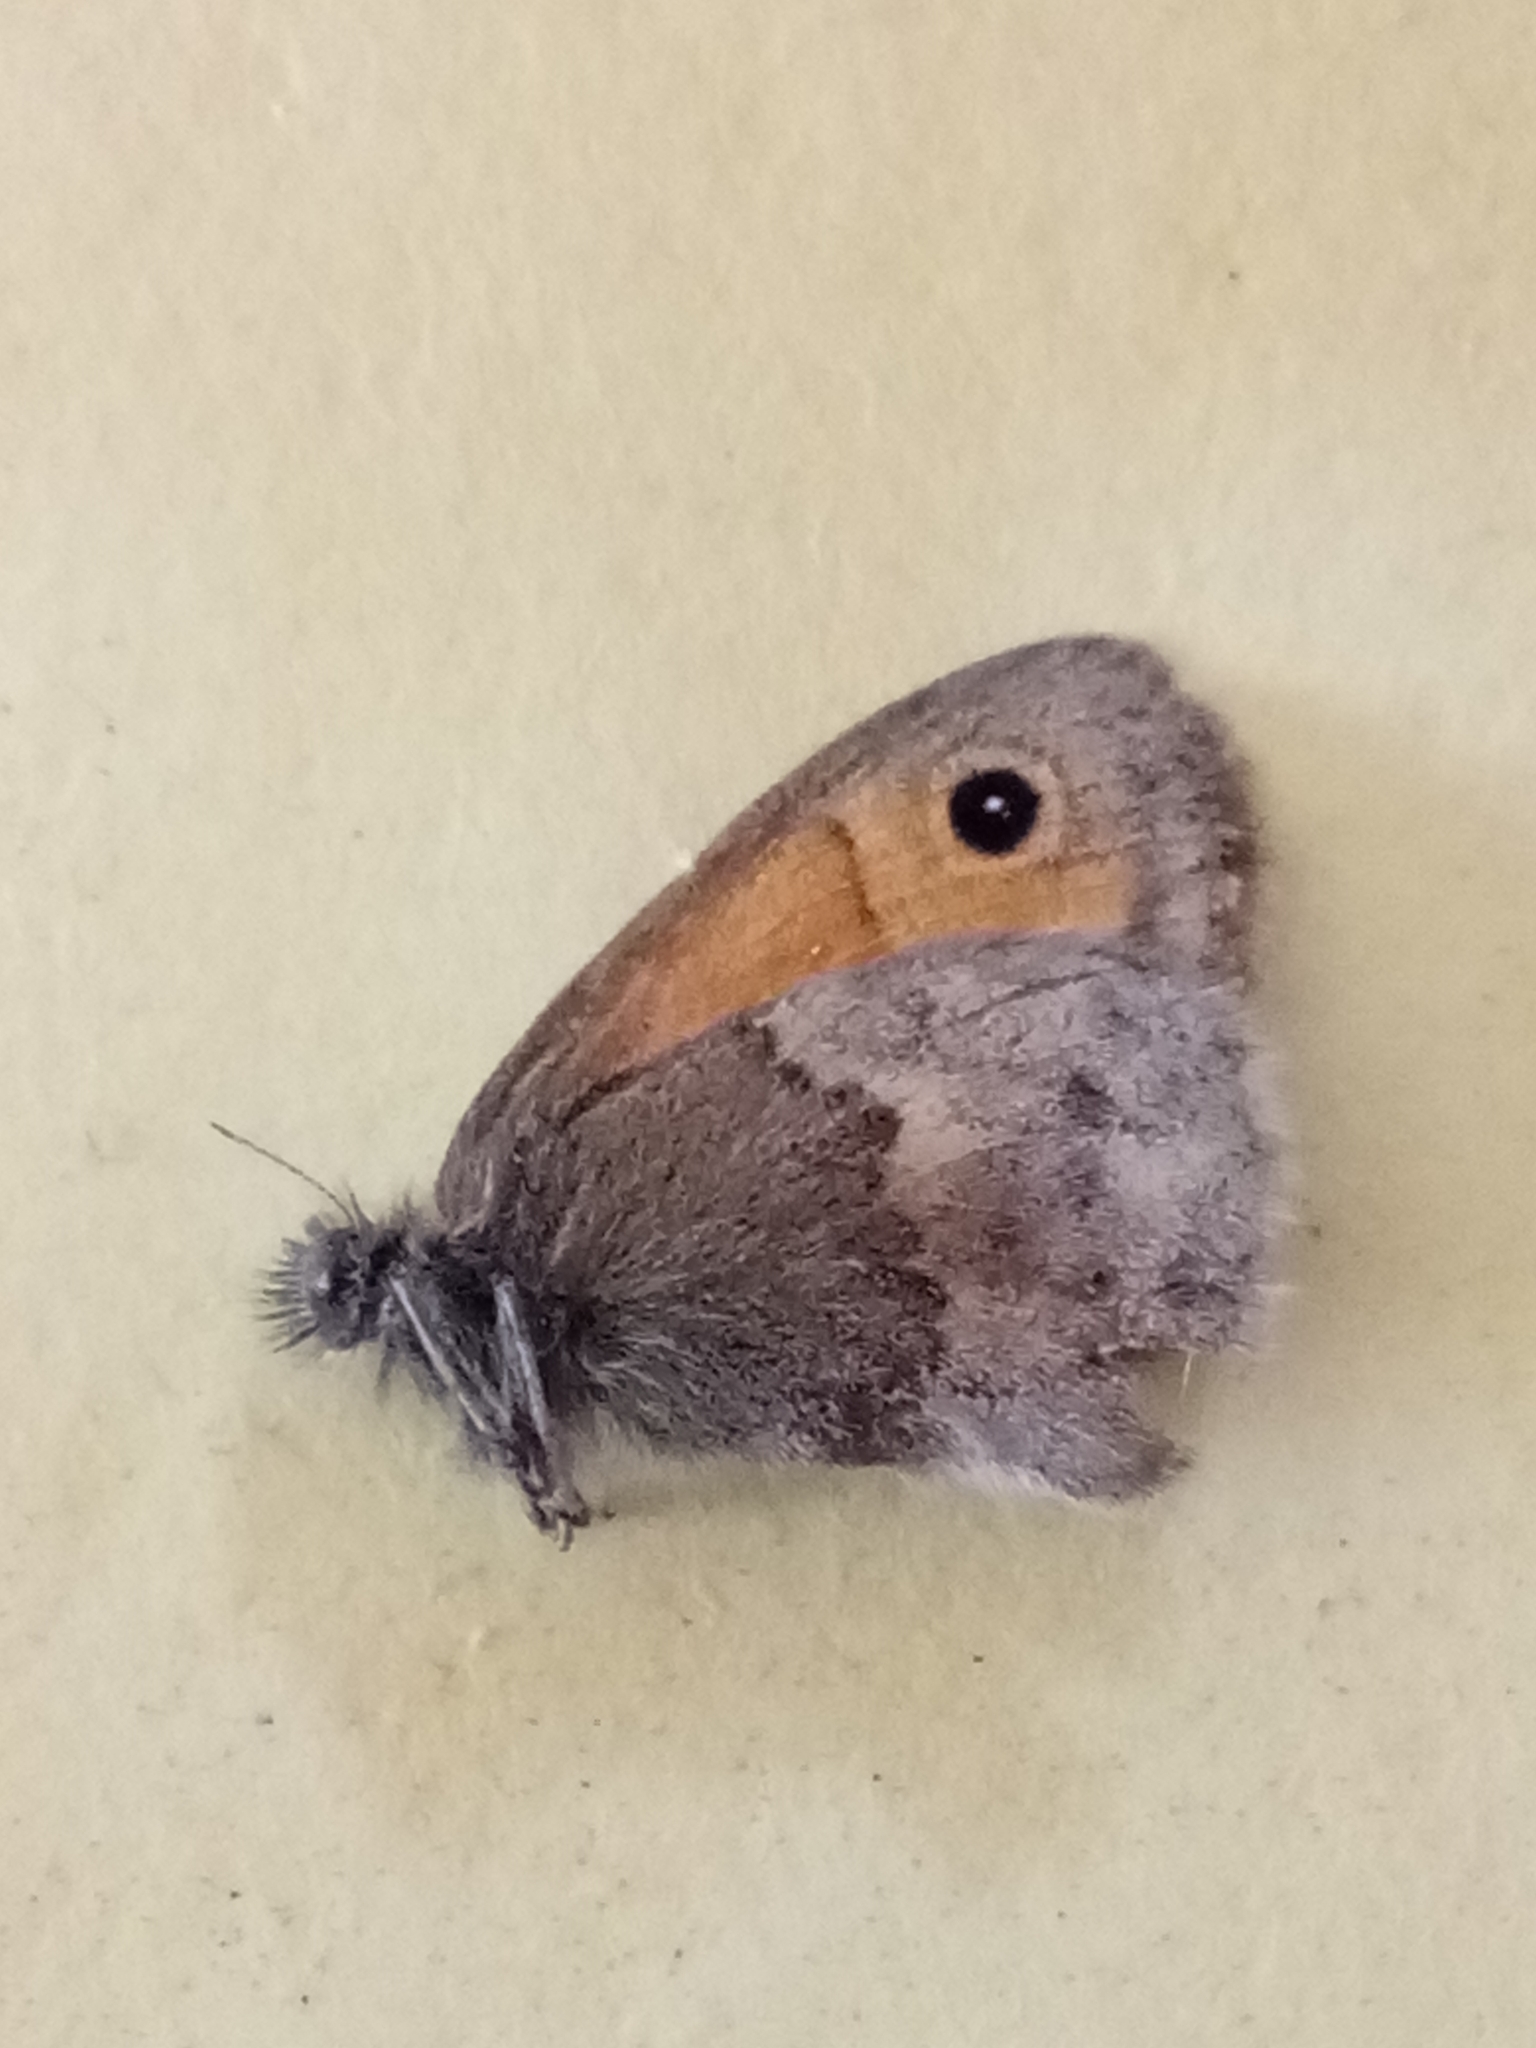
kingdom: Animalia
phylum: Arthropoda
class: Insecta
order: Lepidoptera
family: Nymphalidae
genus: Coenonympha
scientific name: Coenonympha pamphilus
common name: Small heath
